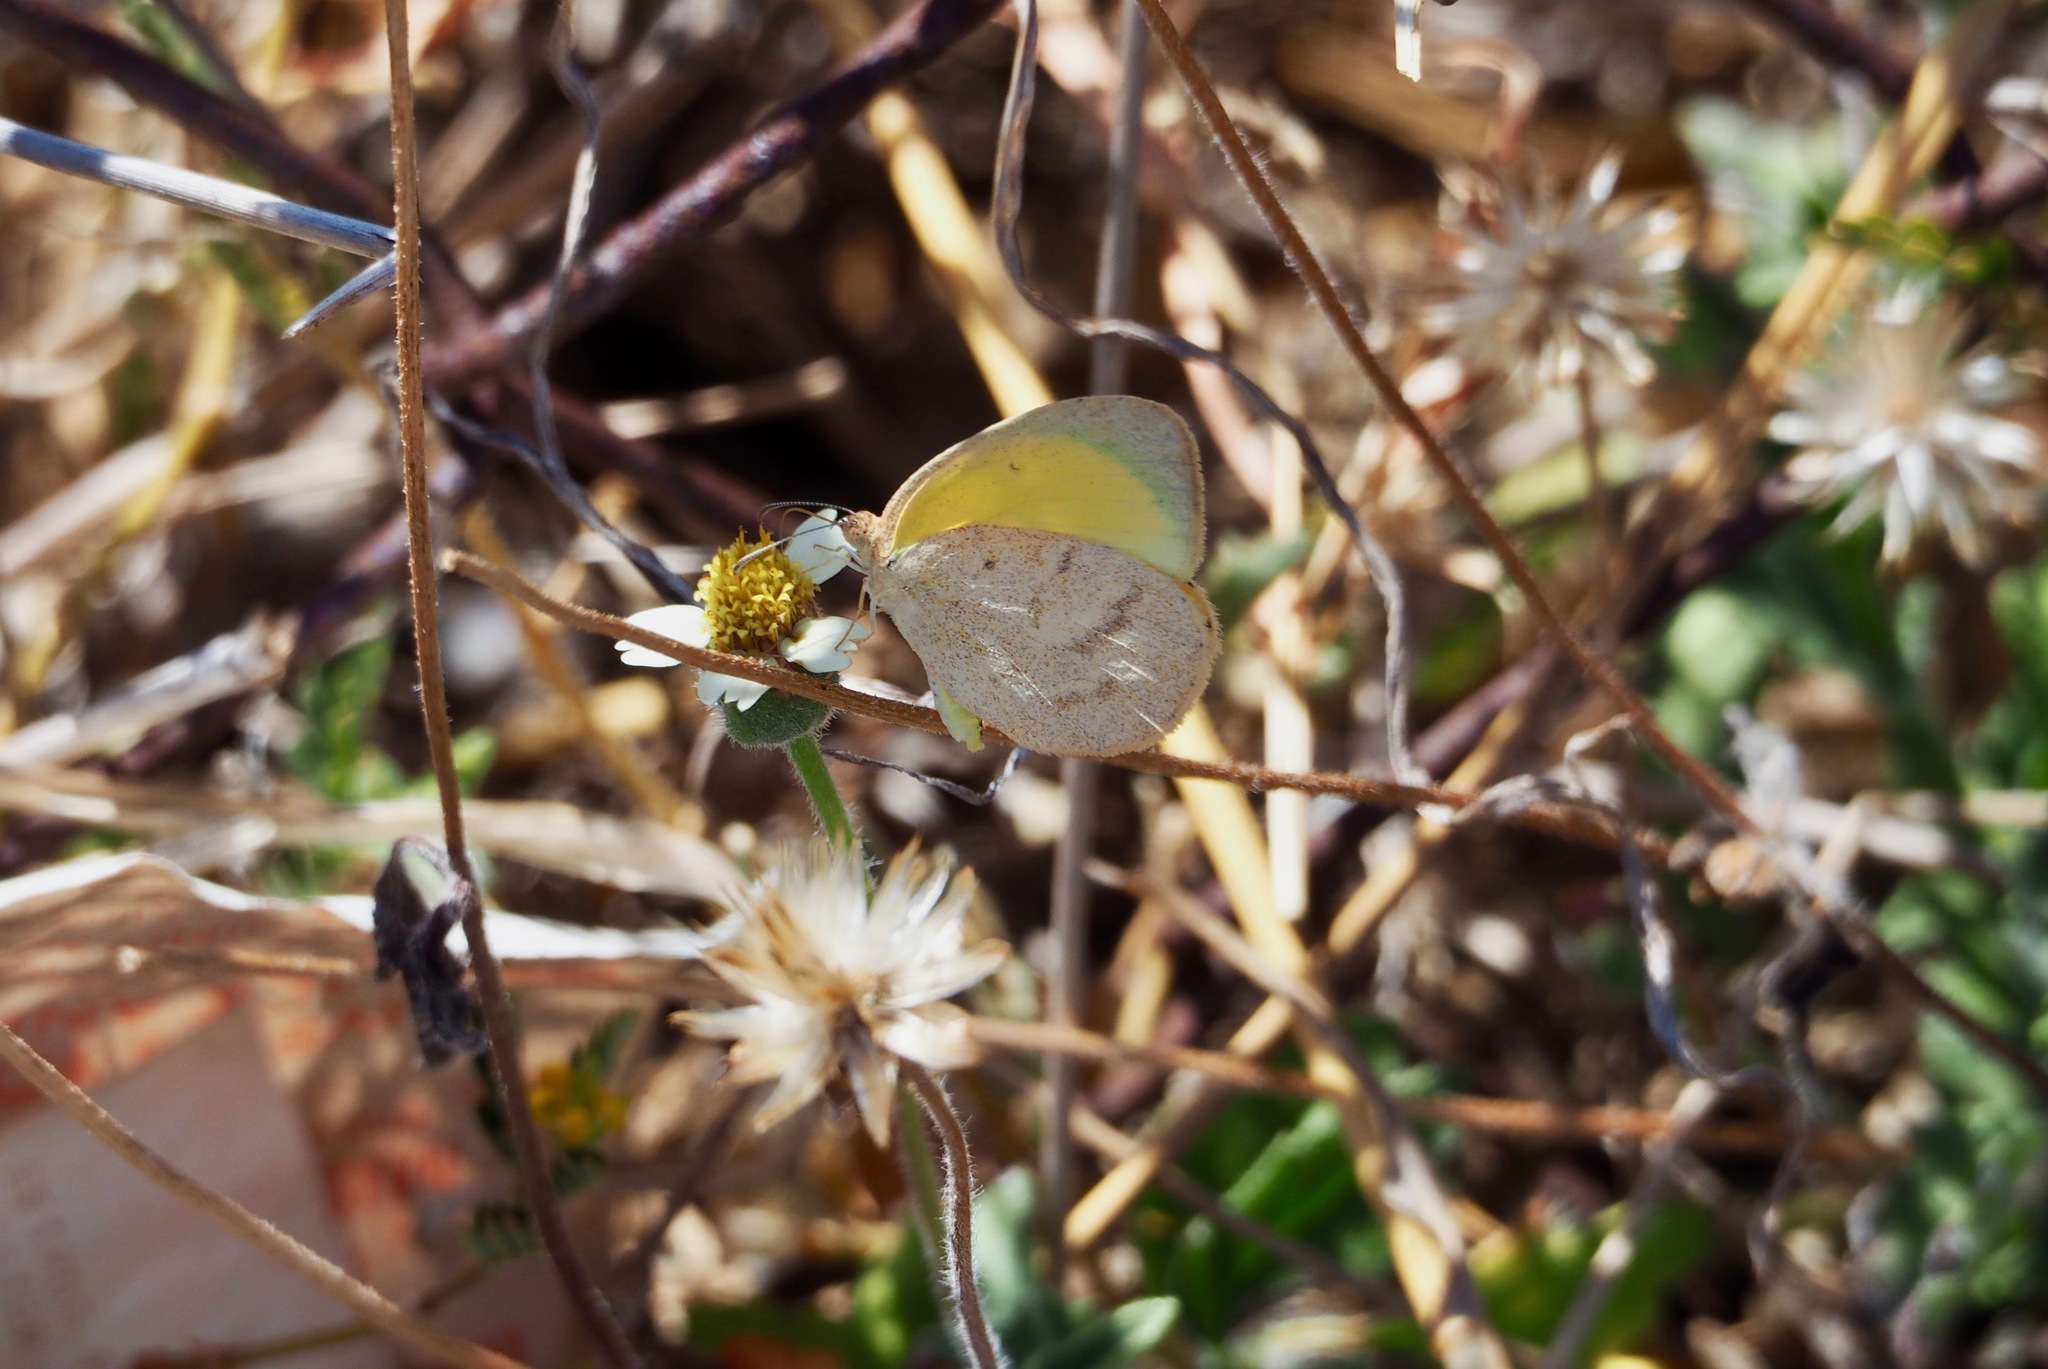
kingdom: Animalia
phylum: Arthropoda
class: Insecta
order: Lepidoptera
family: Pieridae
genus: Eurema
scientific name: Eurema herla
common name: Macleay's grass yellow
